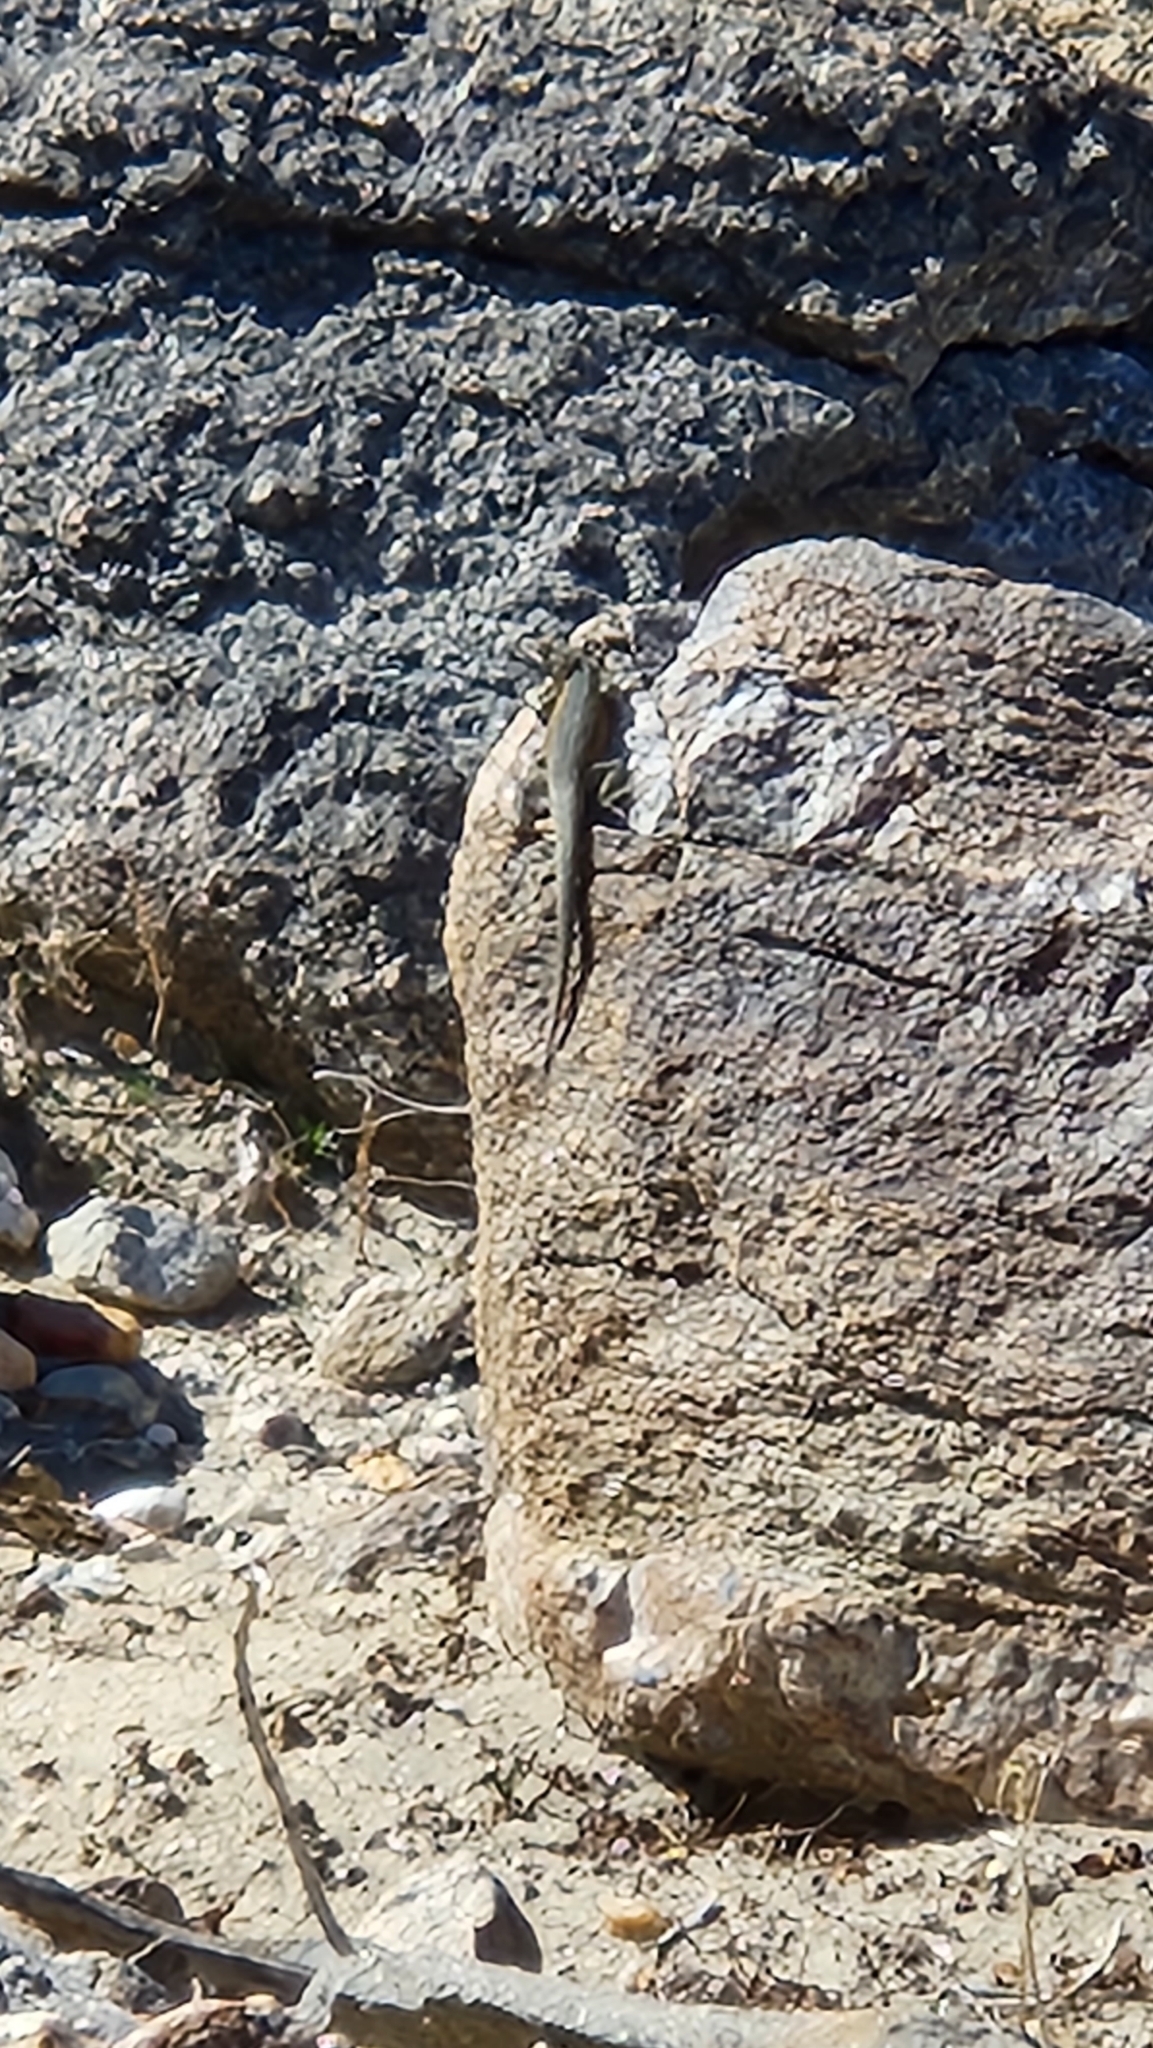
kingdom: Animalia
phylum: Chordata
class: Squamata
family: Phrynosomatidae
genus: Uta
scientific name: Uta stansburiana
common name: Side-blotched lizard
